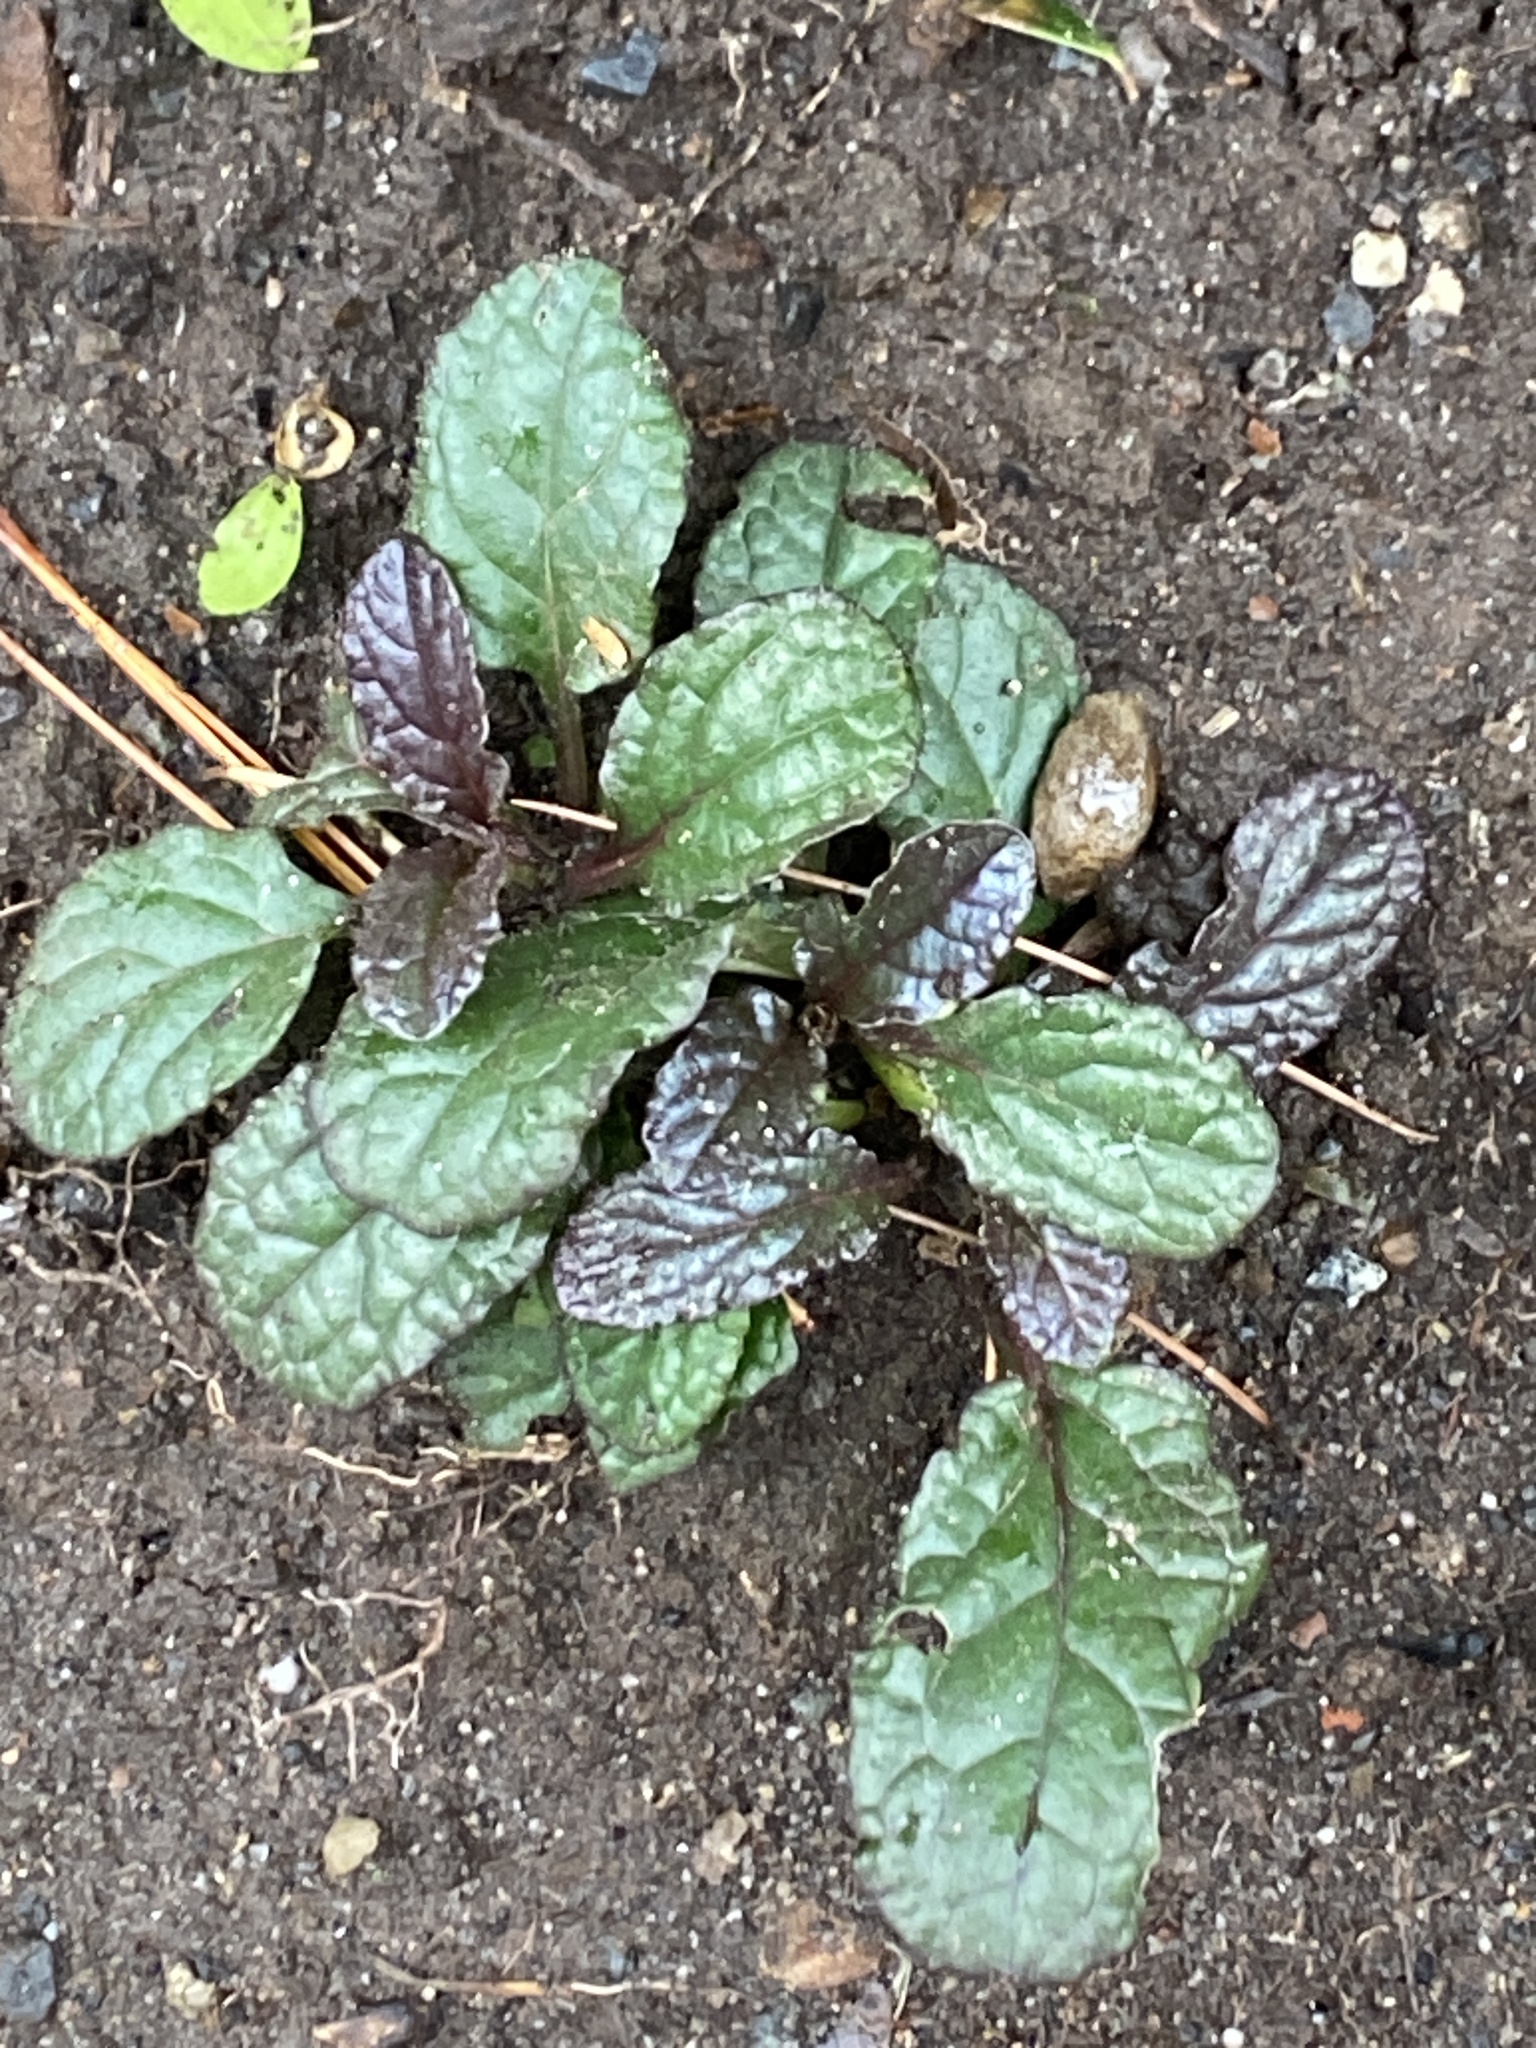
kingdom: Plantae
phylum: Tracheophyta
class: Magnoliopsida
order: Lamiales
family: Lamiaceae
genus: Ajuga
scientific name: Ajuga reptans
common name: Bugle
